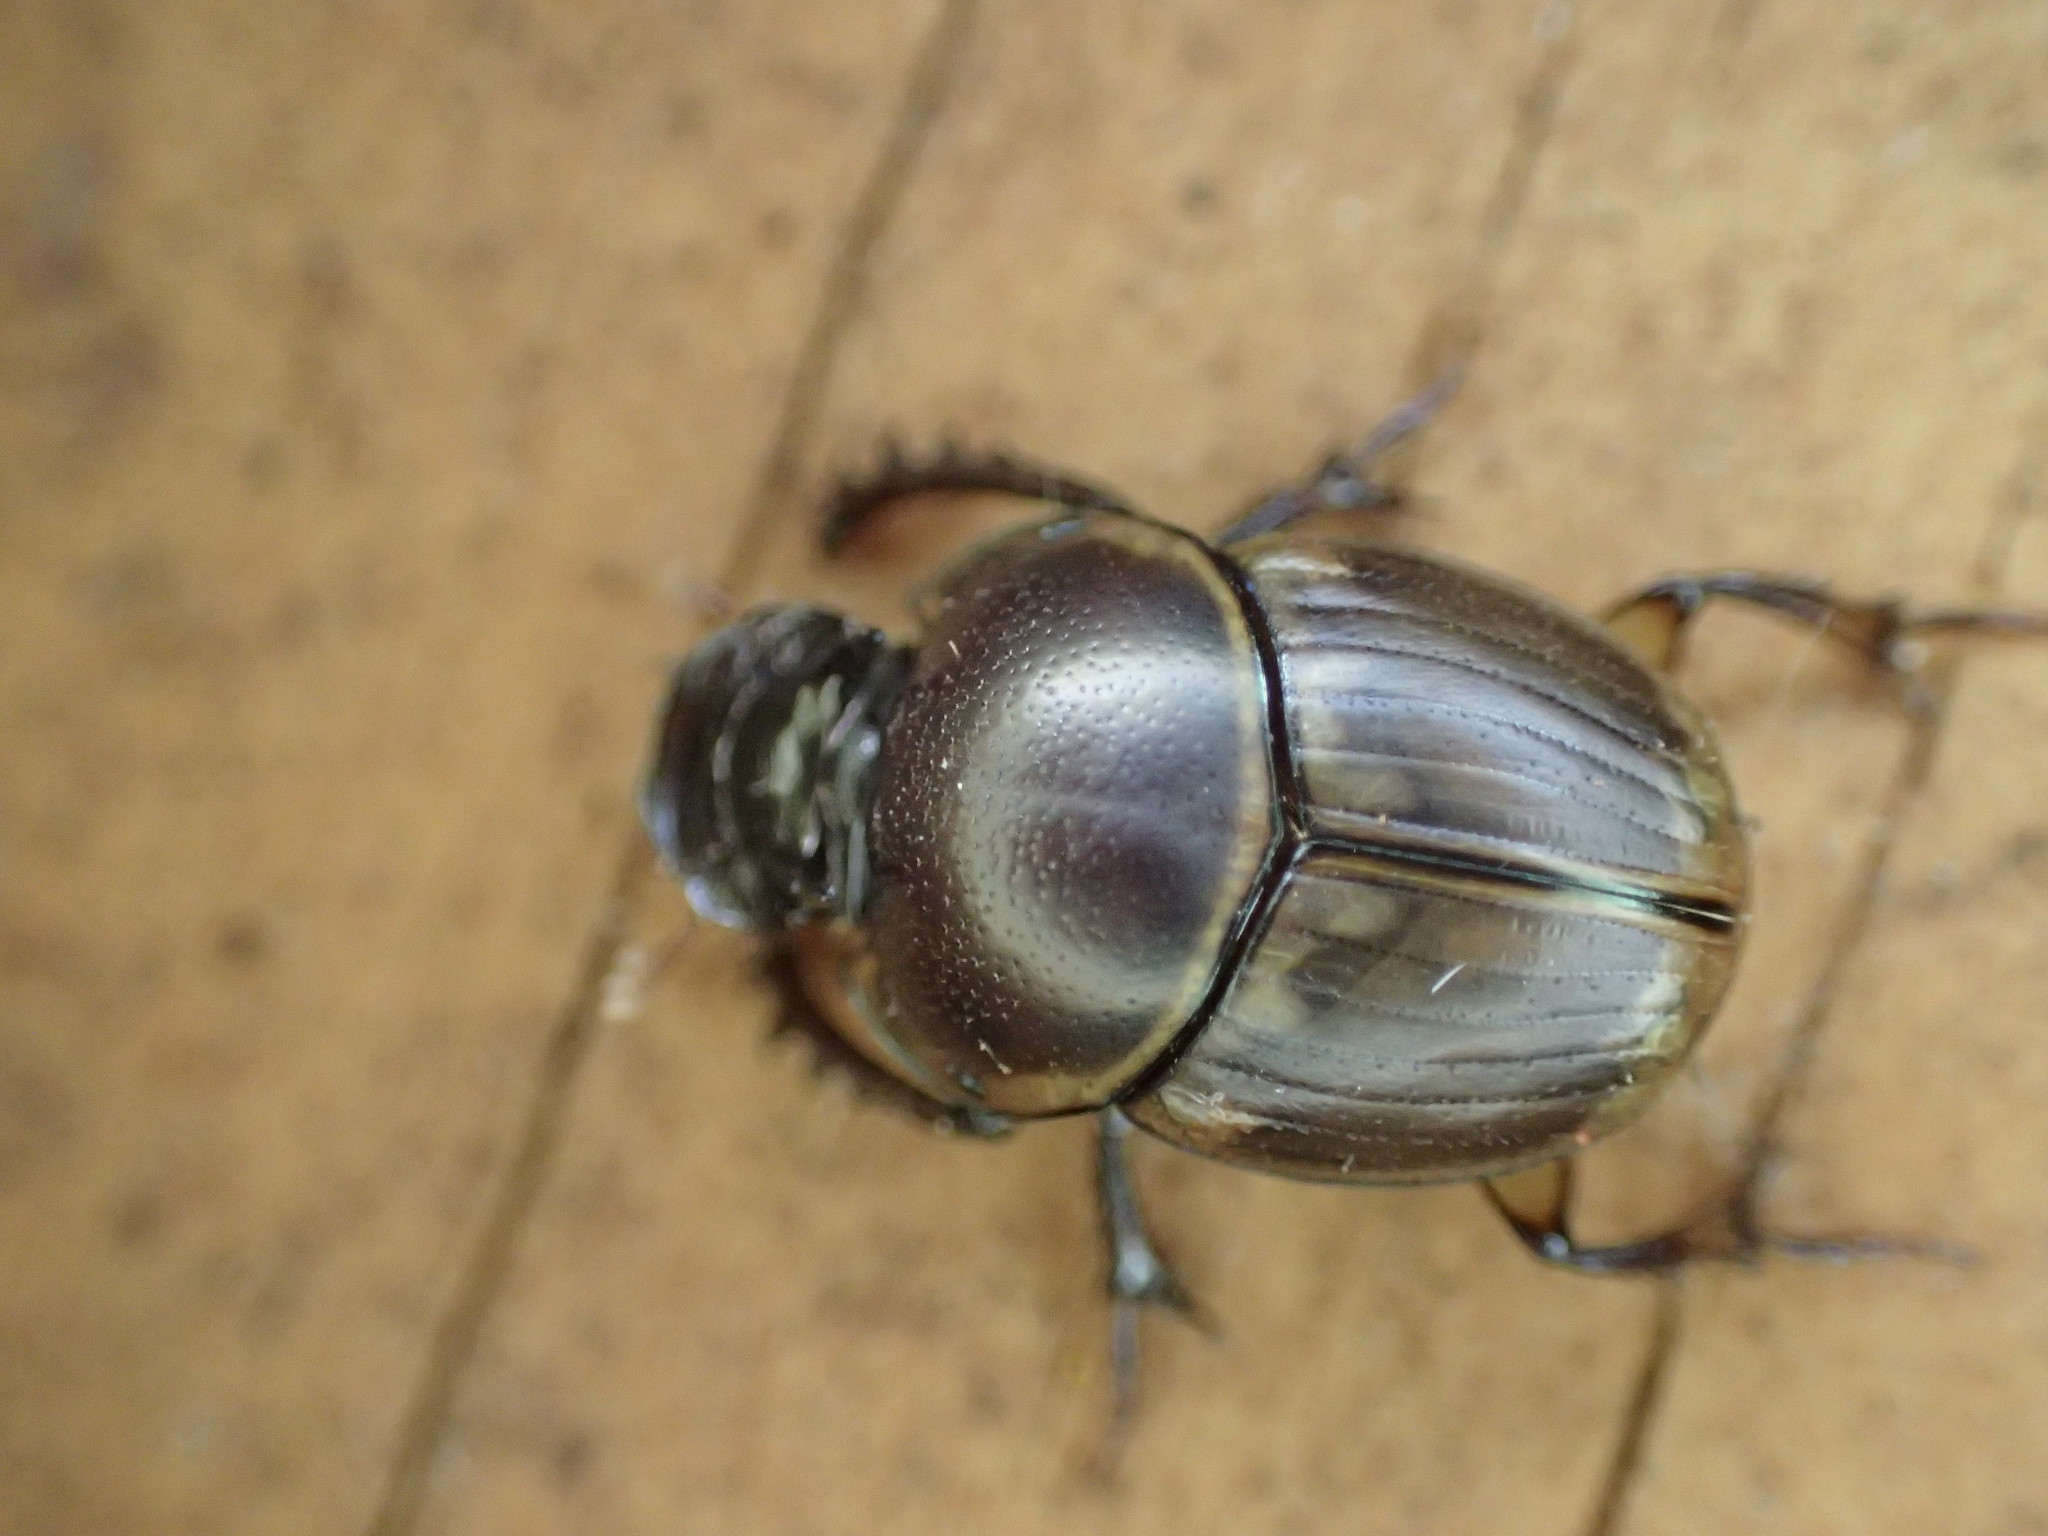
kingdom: Animalia
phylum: Arthropoda
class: Insecta
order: Coleoptera
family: Scarabaeidae
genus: Digitonthophagus
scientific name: Digitonthophagus gazella
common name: Brown dung beetle
